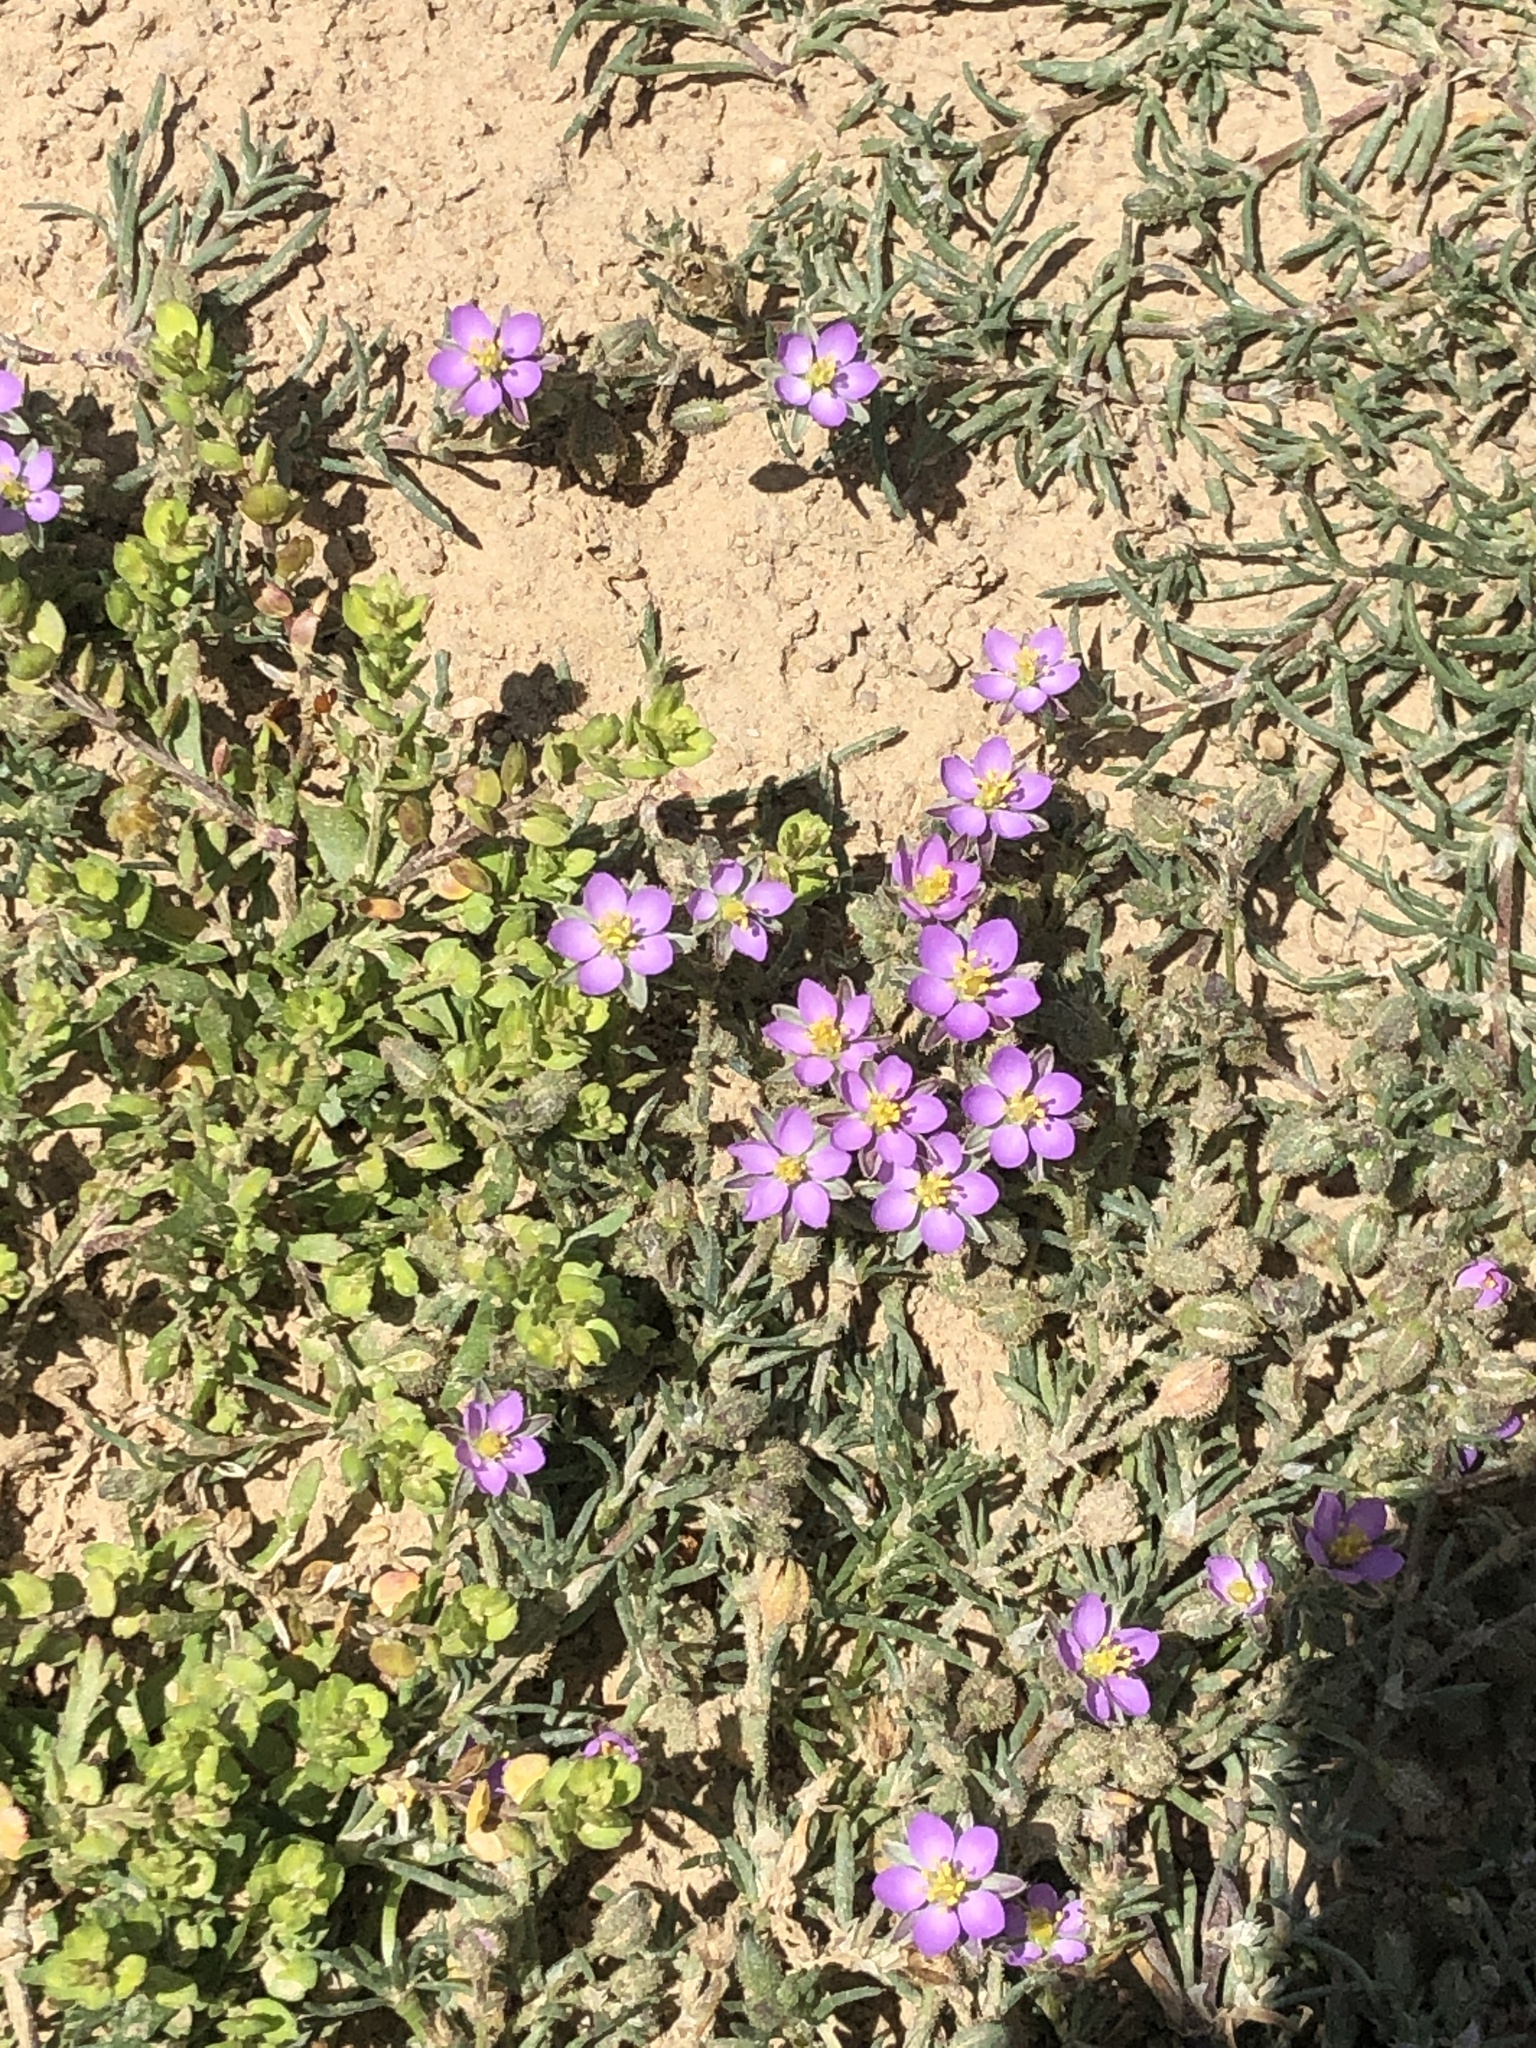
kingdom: Plantae
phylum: Tracheophyta
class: Magnoliopsida
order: Caryophyllales
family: Caryophyllaceae
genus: Spergularia
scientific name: Spergularia rubra
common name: Red sand-spurrey
